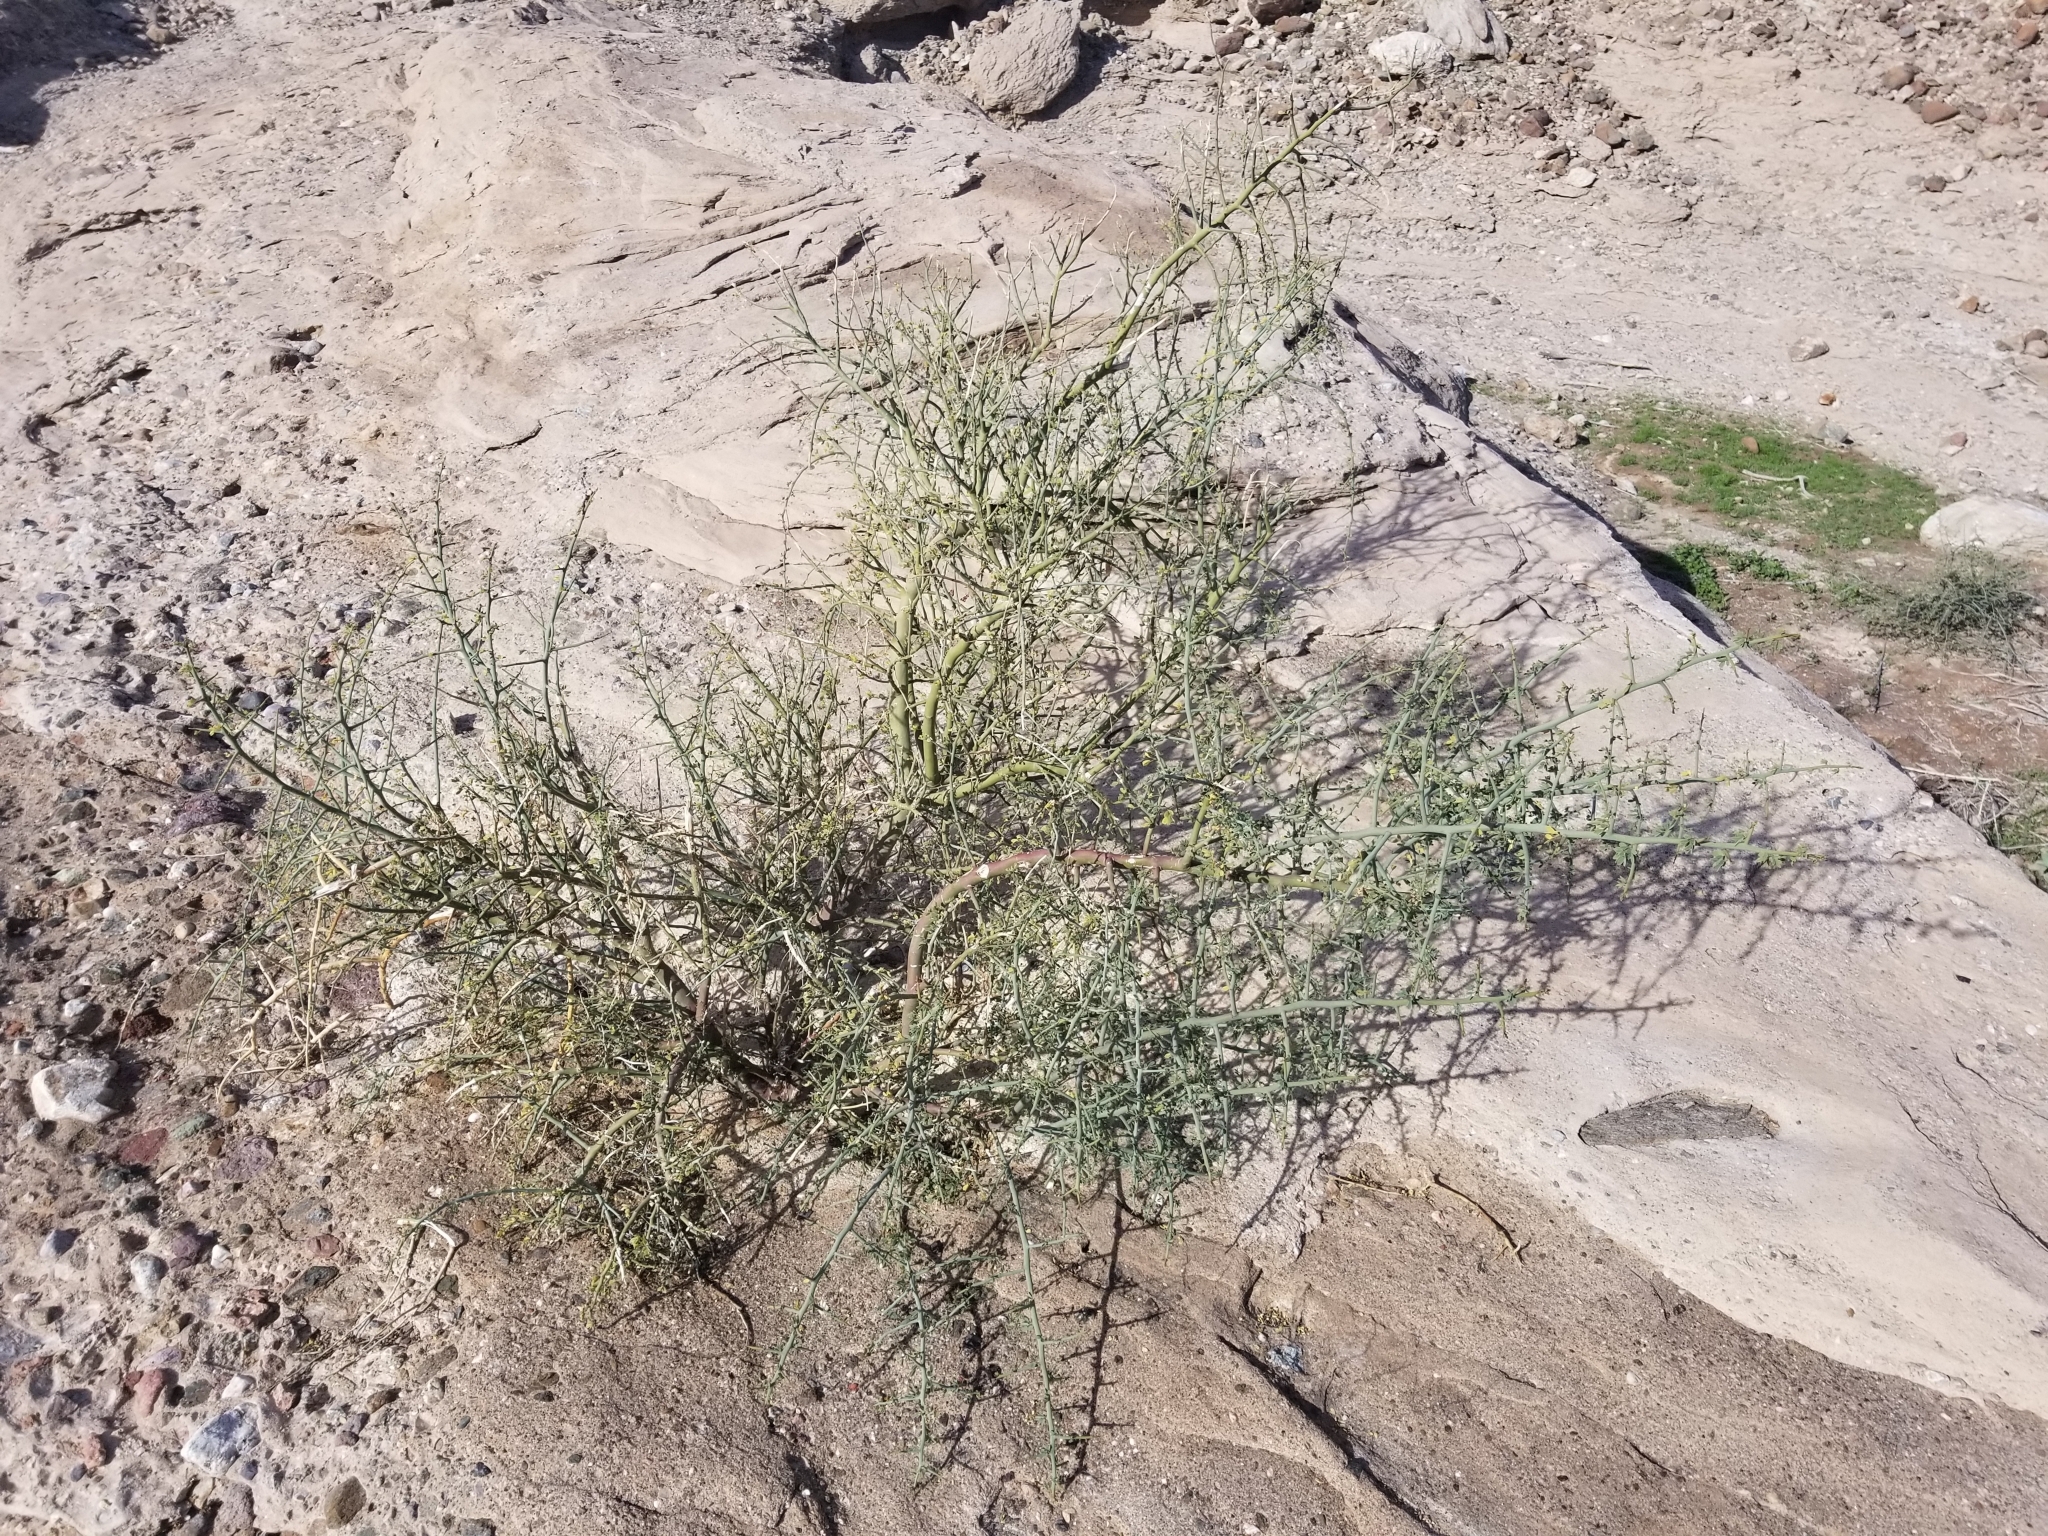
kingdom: Plantae
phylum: Tracheophyta
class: Magnoliopsida
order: Fabales
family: Fabaceae
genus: Parkinsonia
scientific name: Parkinsonia florida
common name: Blue paloverde
